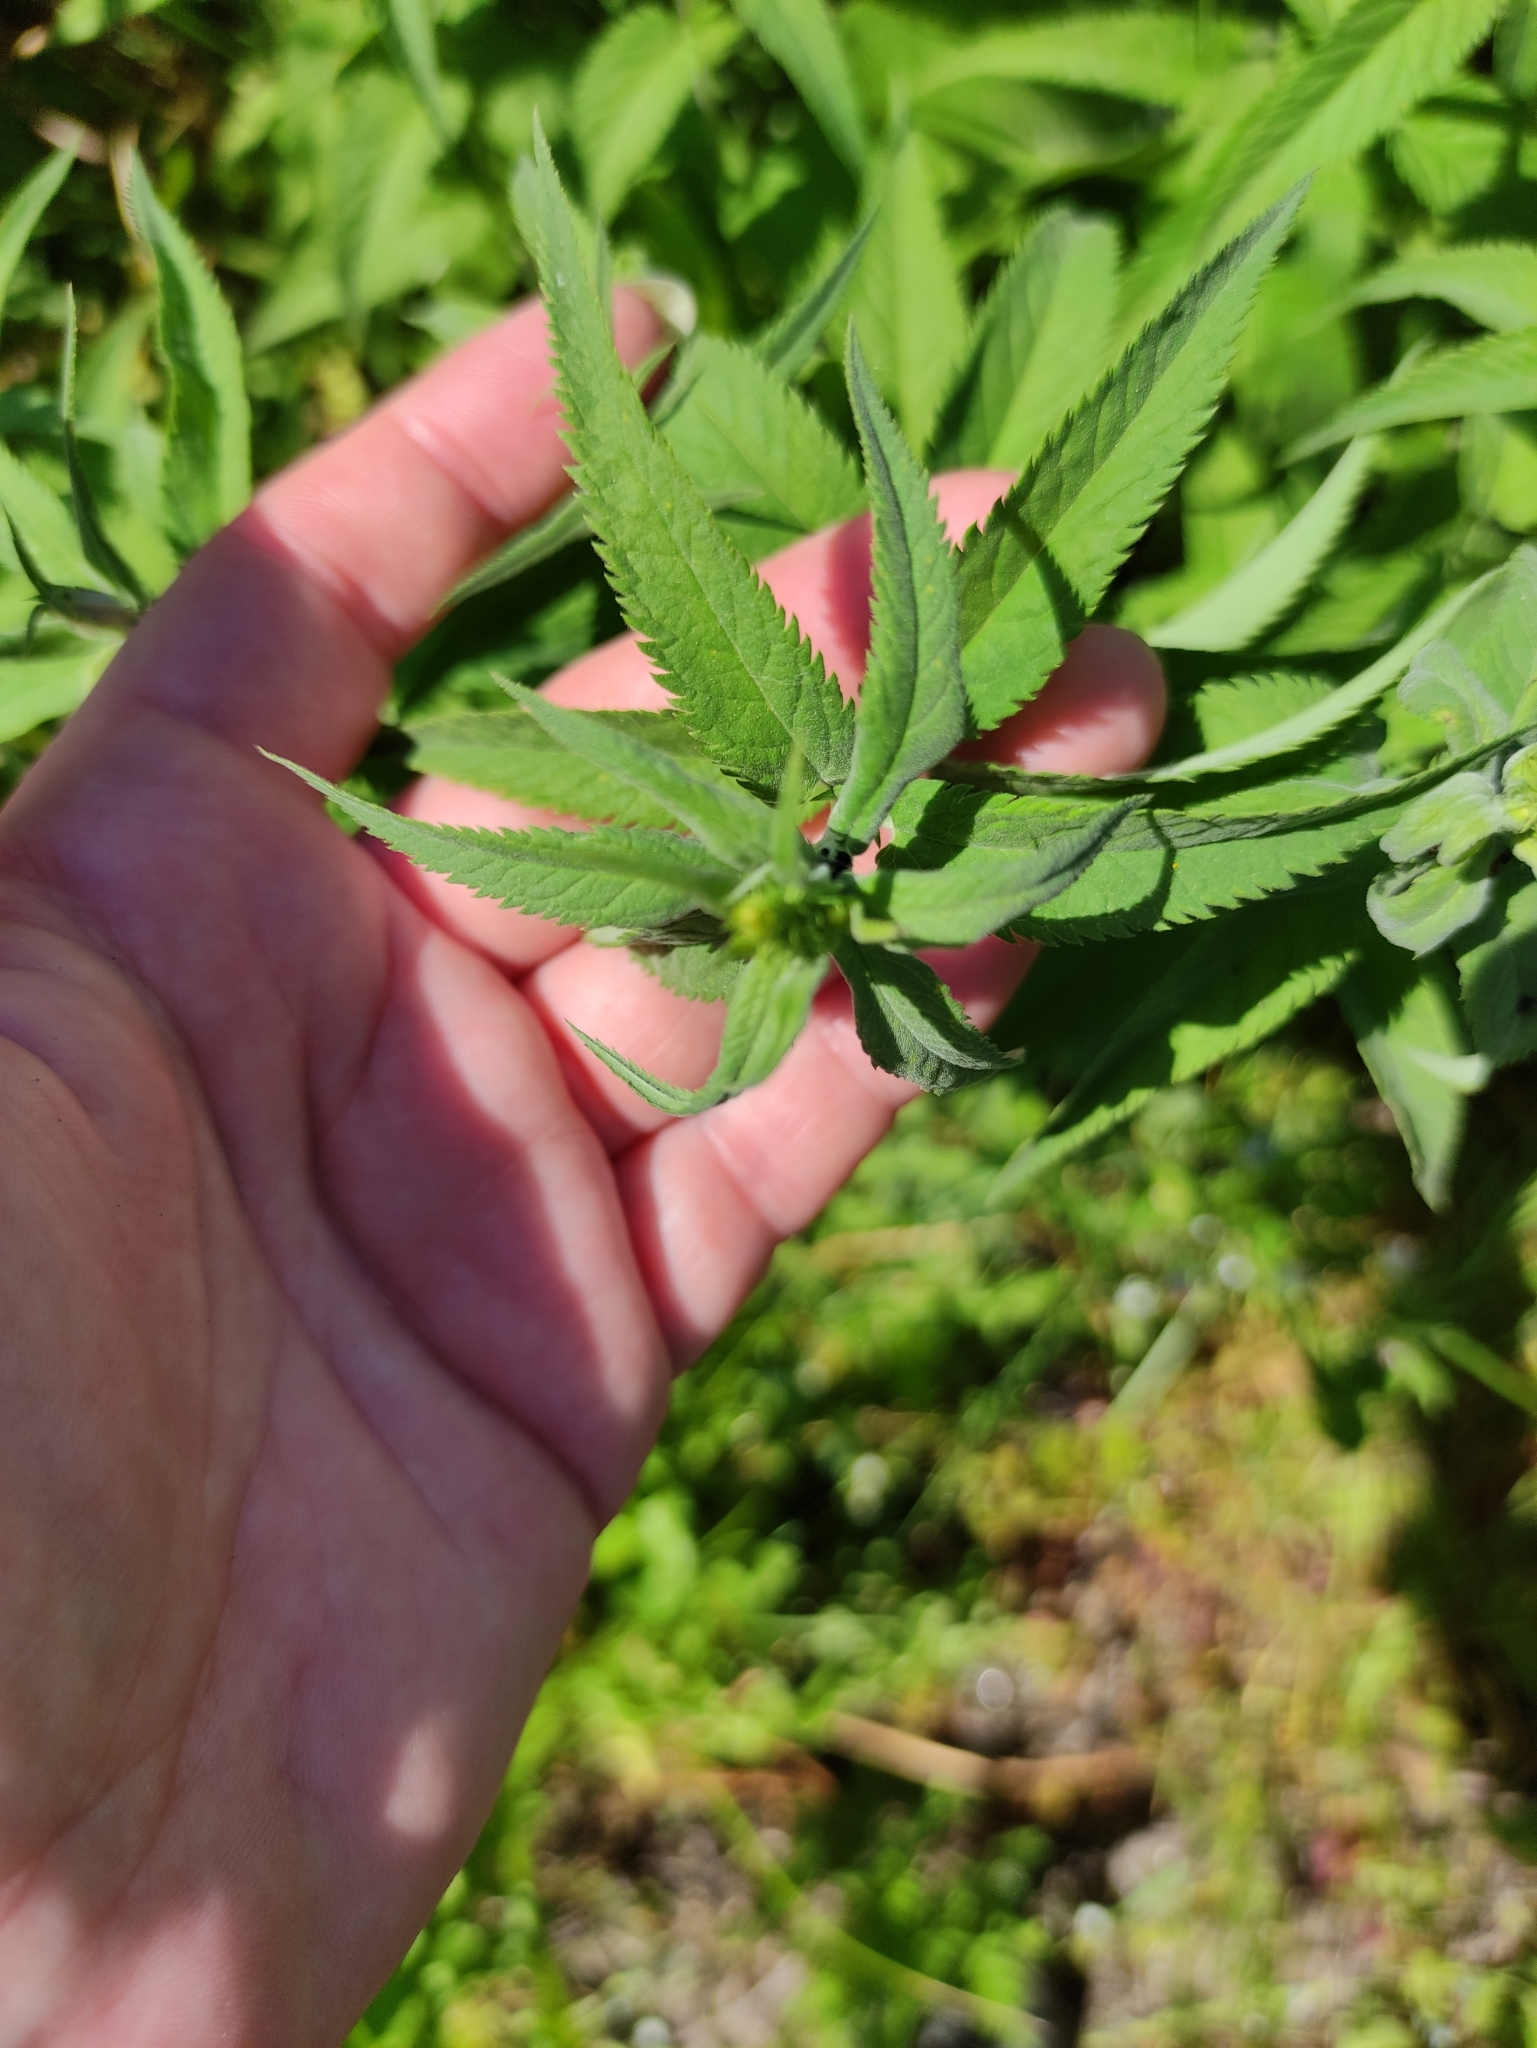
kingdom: Plantae
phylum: Tracheophyta
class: Magnoliopsida
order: Lamiales
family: Plantaginaceae
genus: Veronica
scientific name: Veronica longifolia
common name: Garden speedwell
